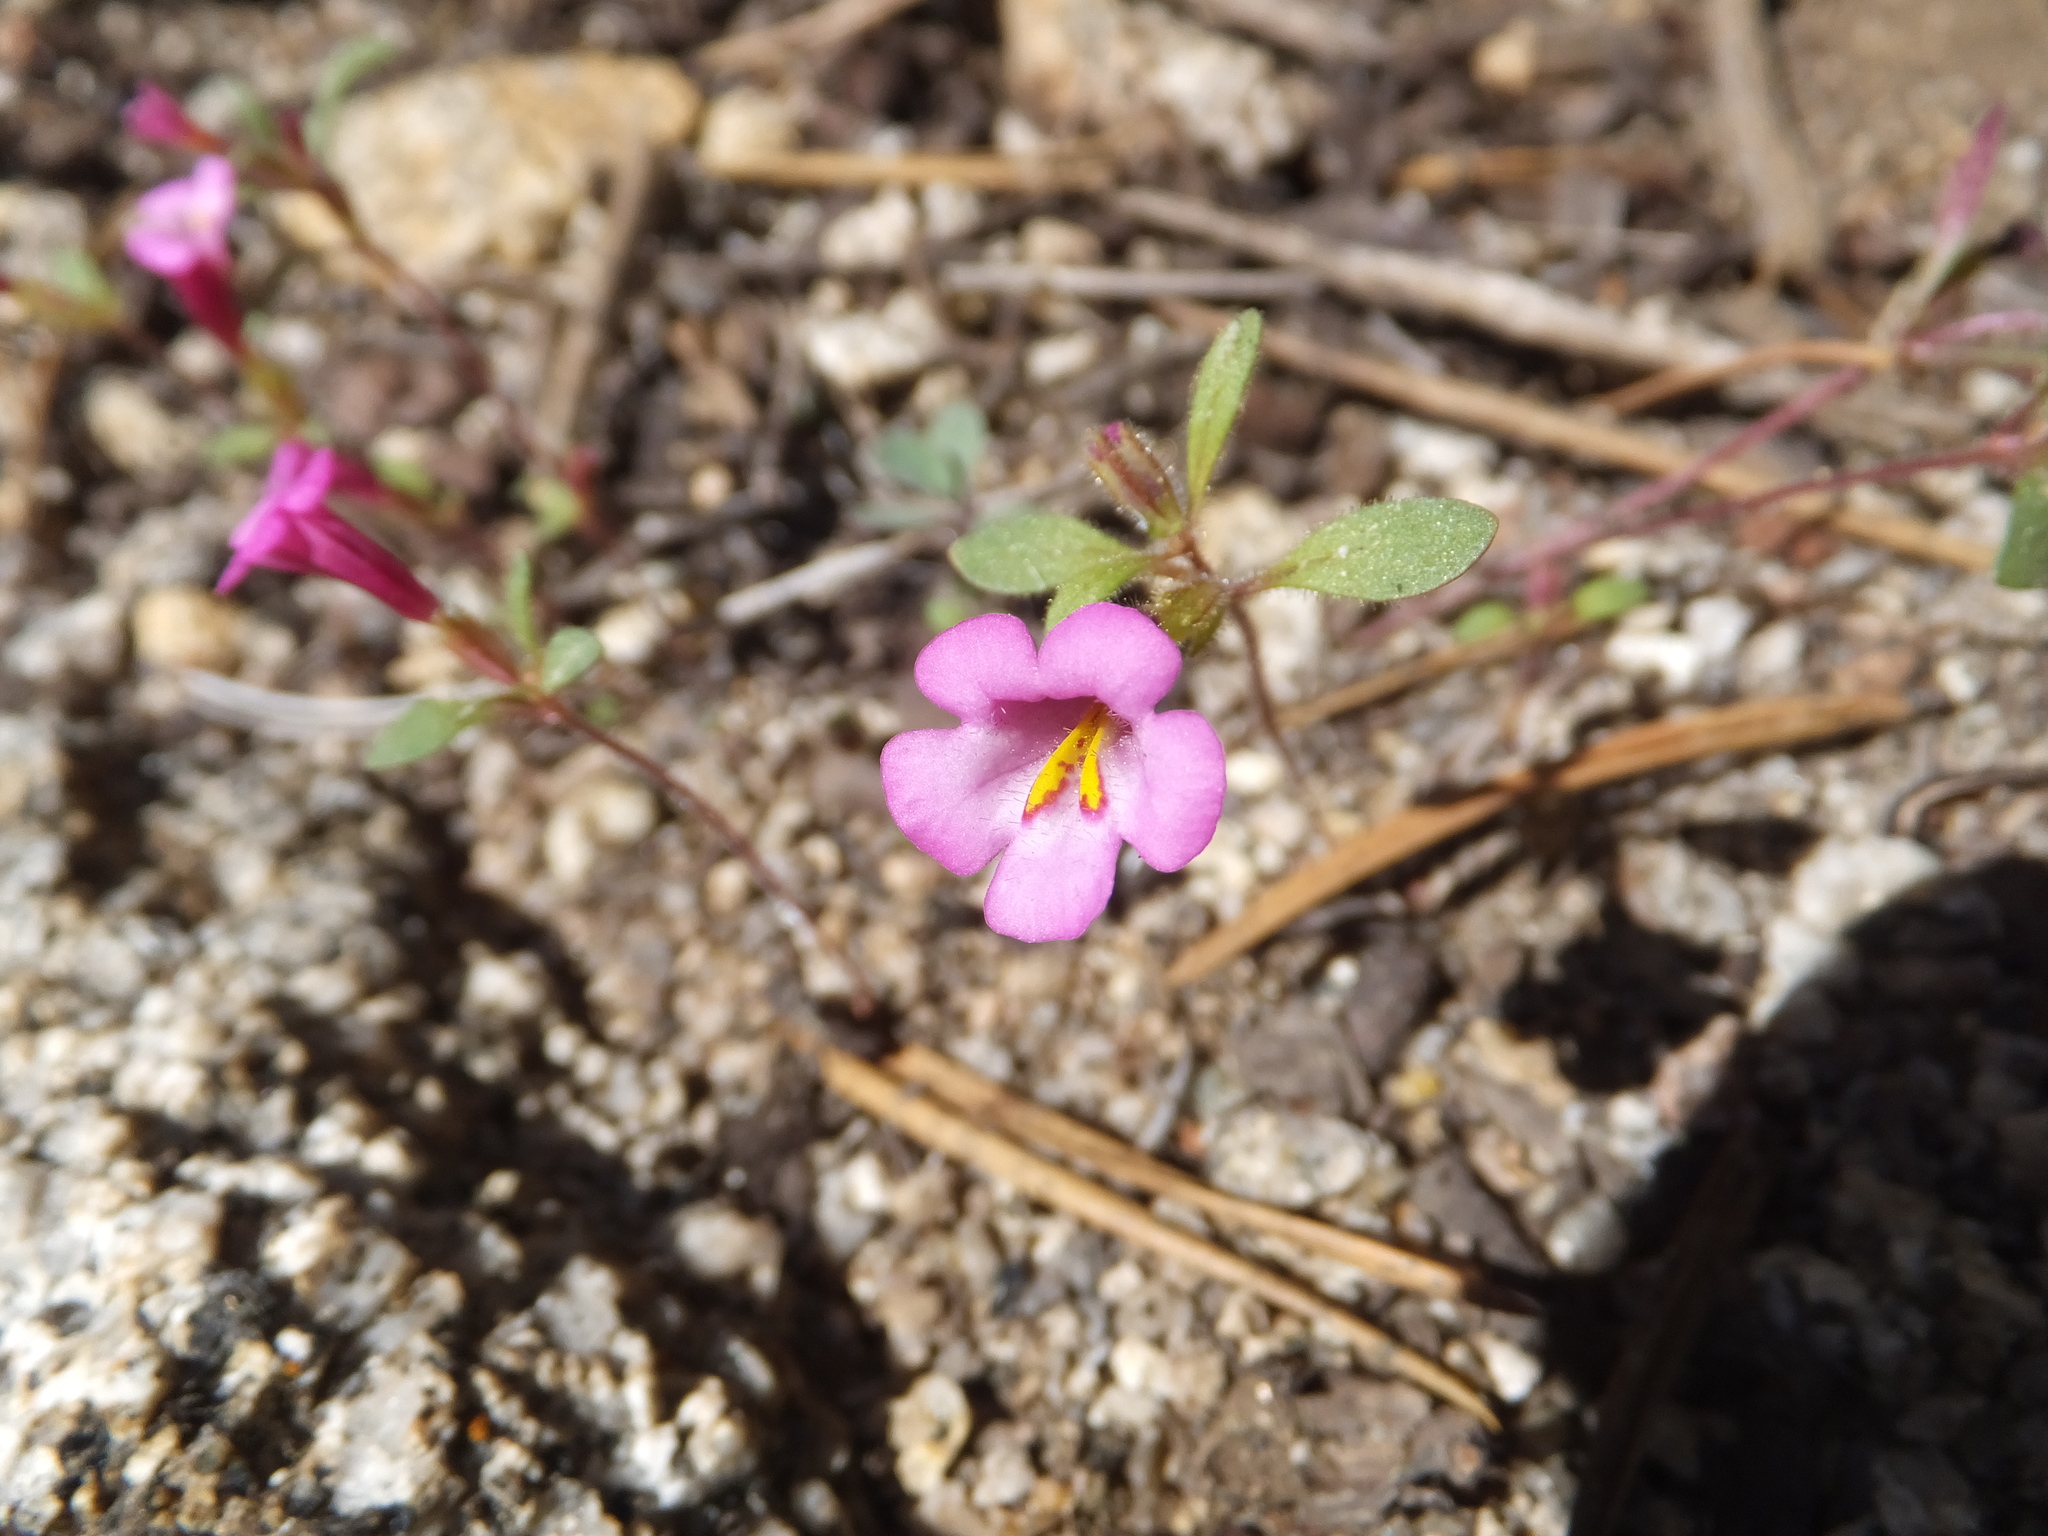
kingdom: Plantae
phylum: Tracheophyta
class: Magnoliopsida
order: Lamiales
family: Phrymaceae
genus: Diplacus
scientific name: Diplacus torreyi
